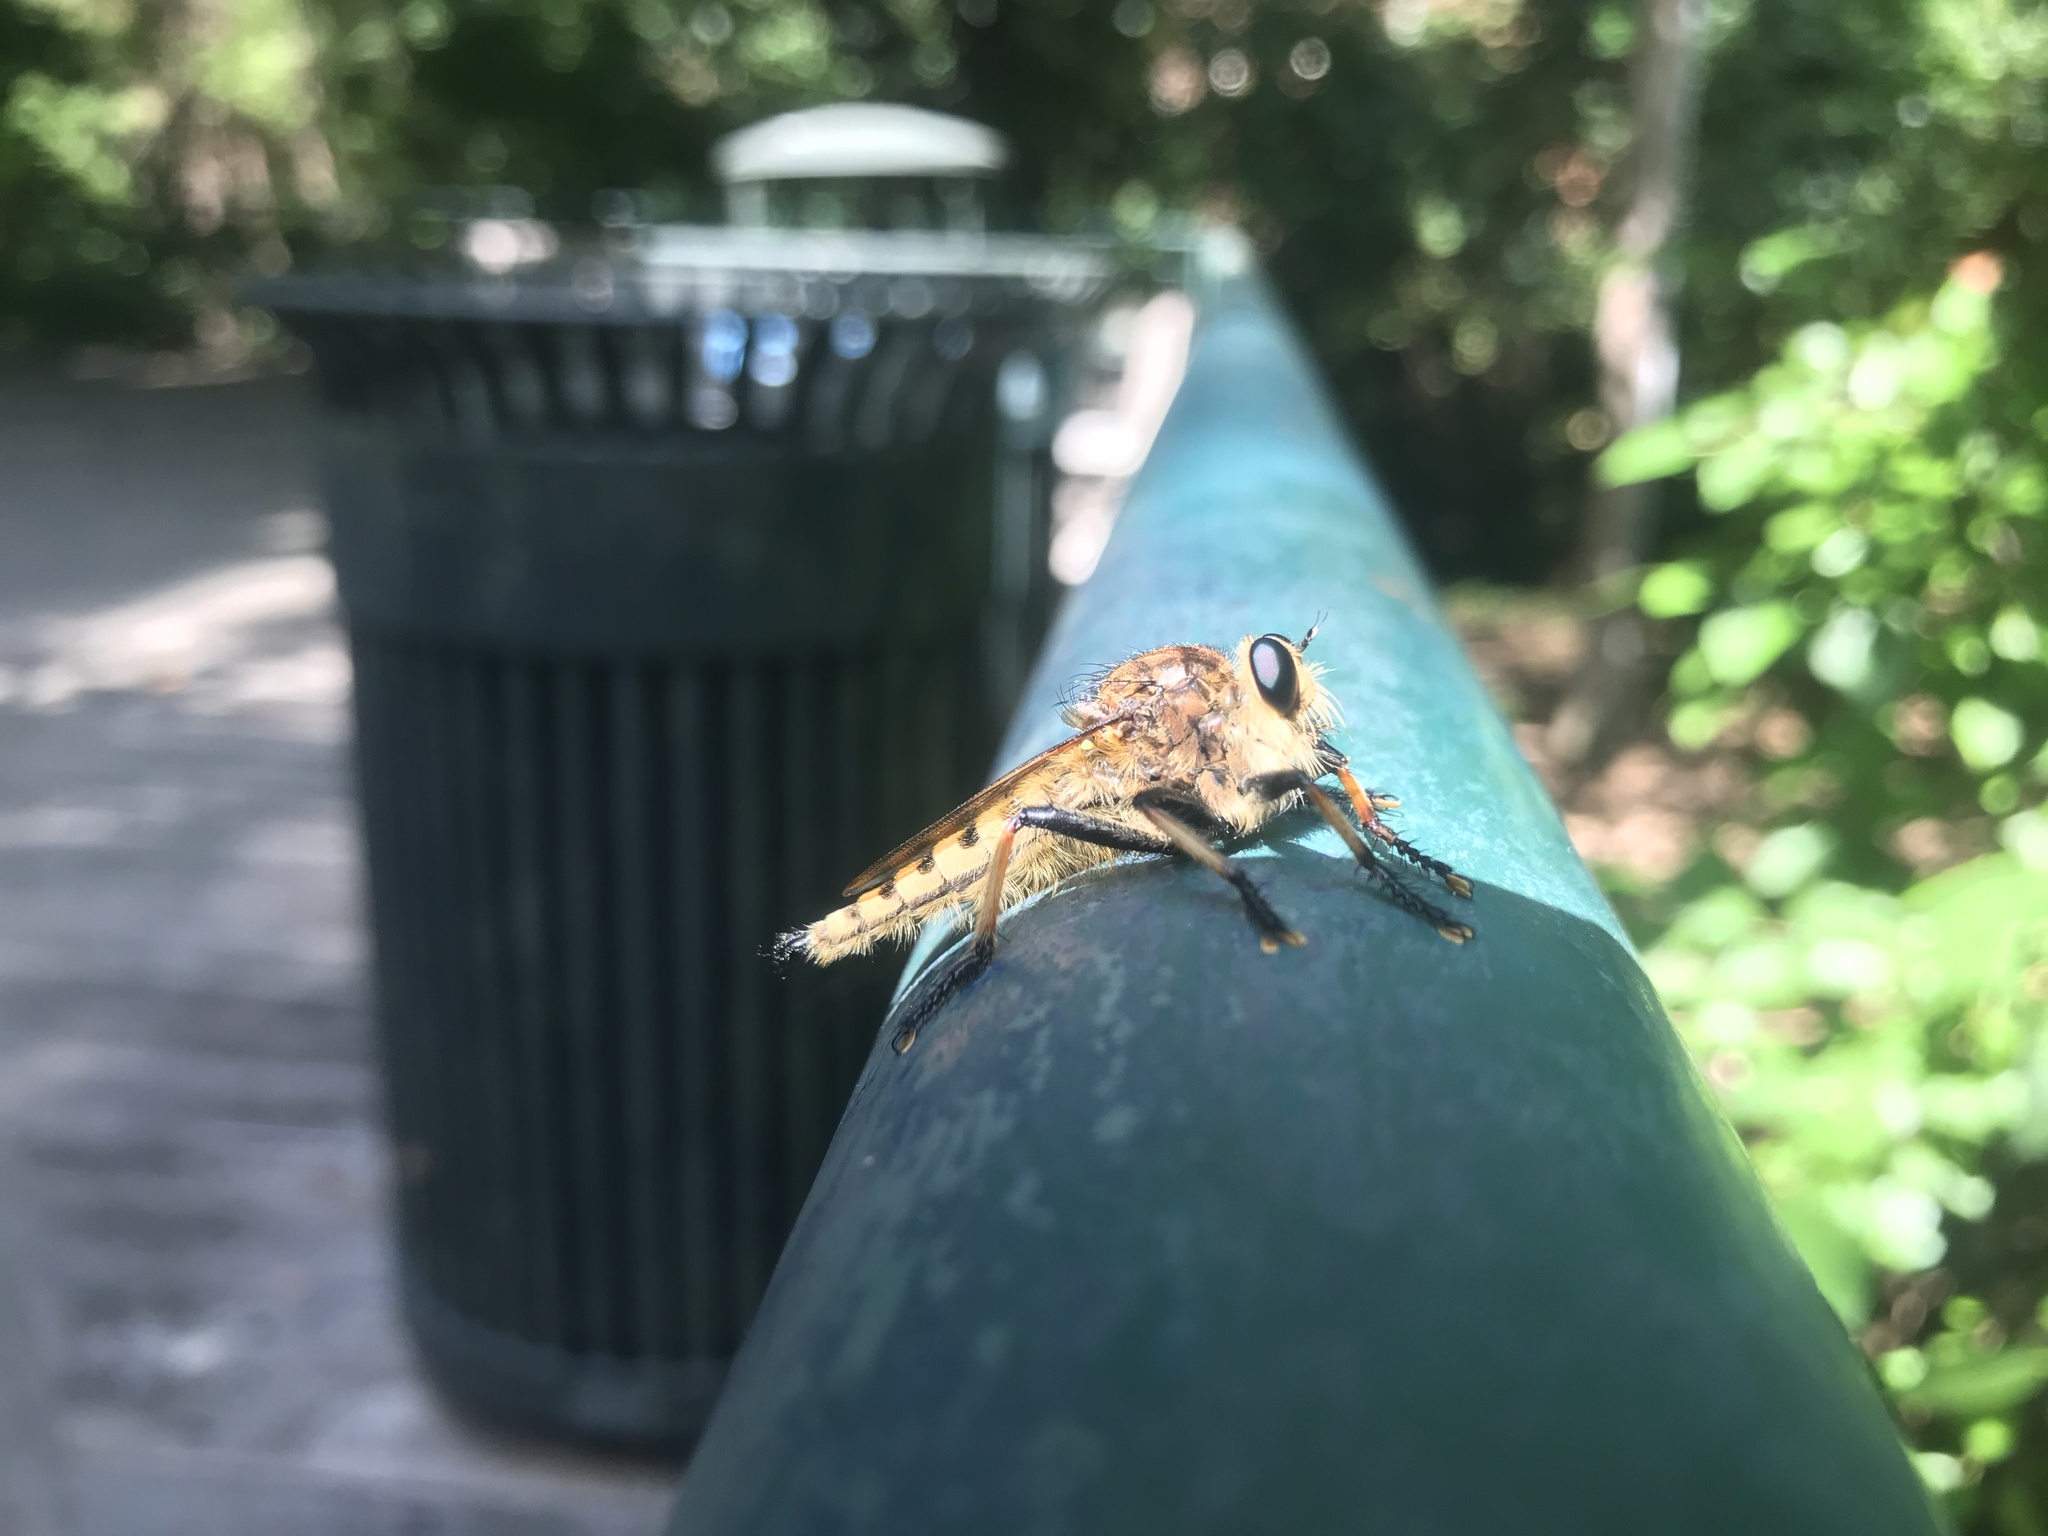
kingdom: Animalia
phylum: Arthropoda
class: Insecta
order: Diptera
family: Asilidae
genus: Promachus
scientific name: Promachus rufipes
